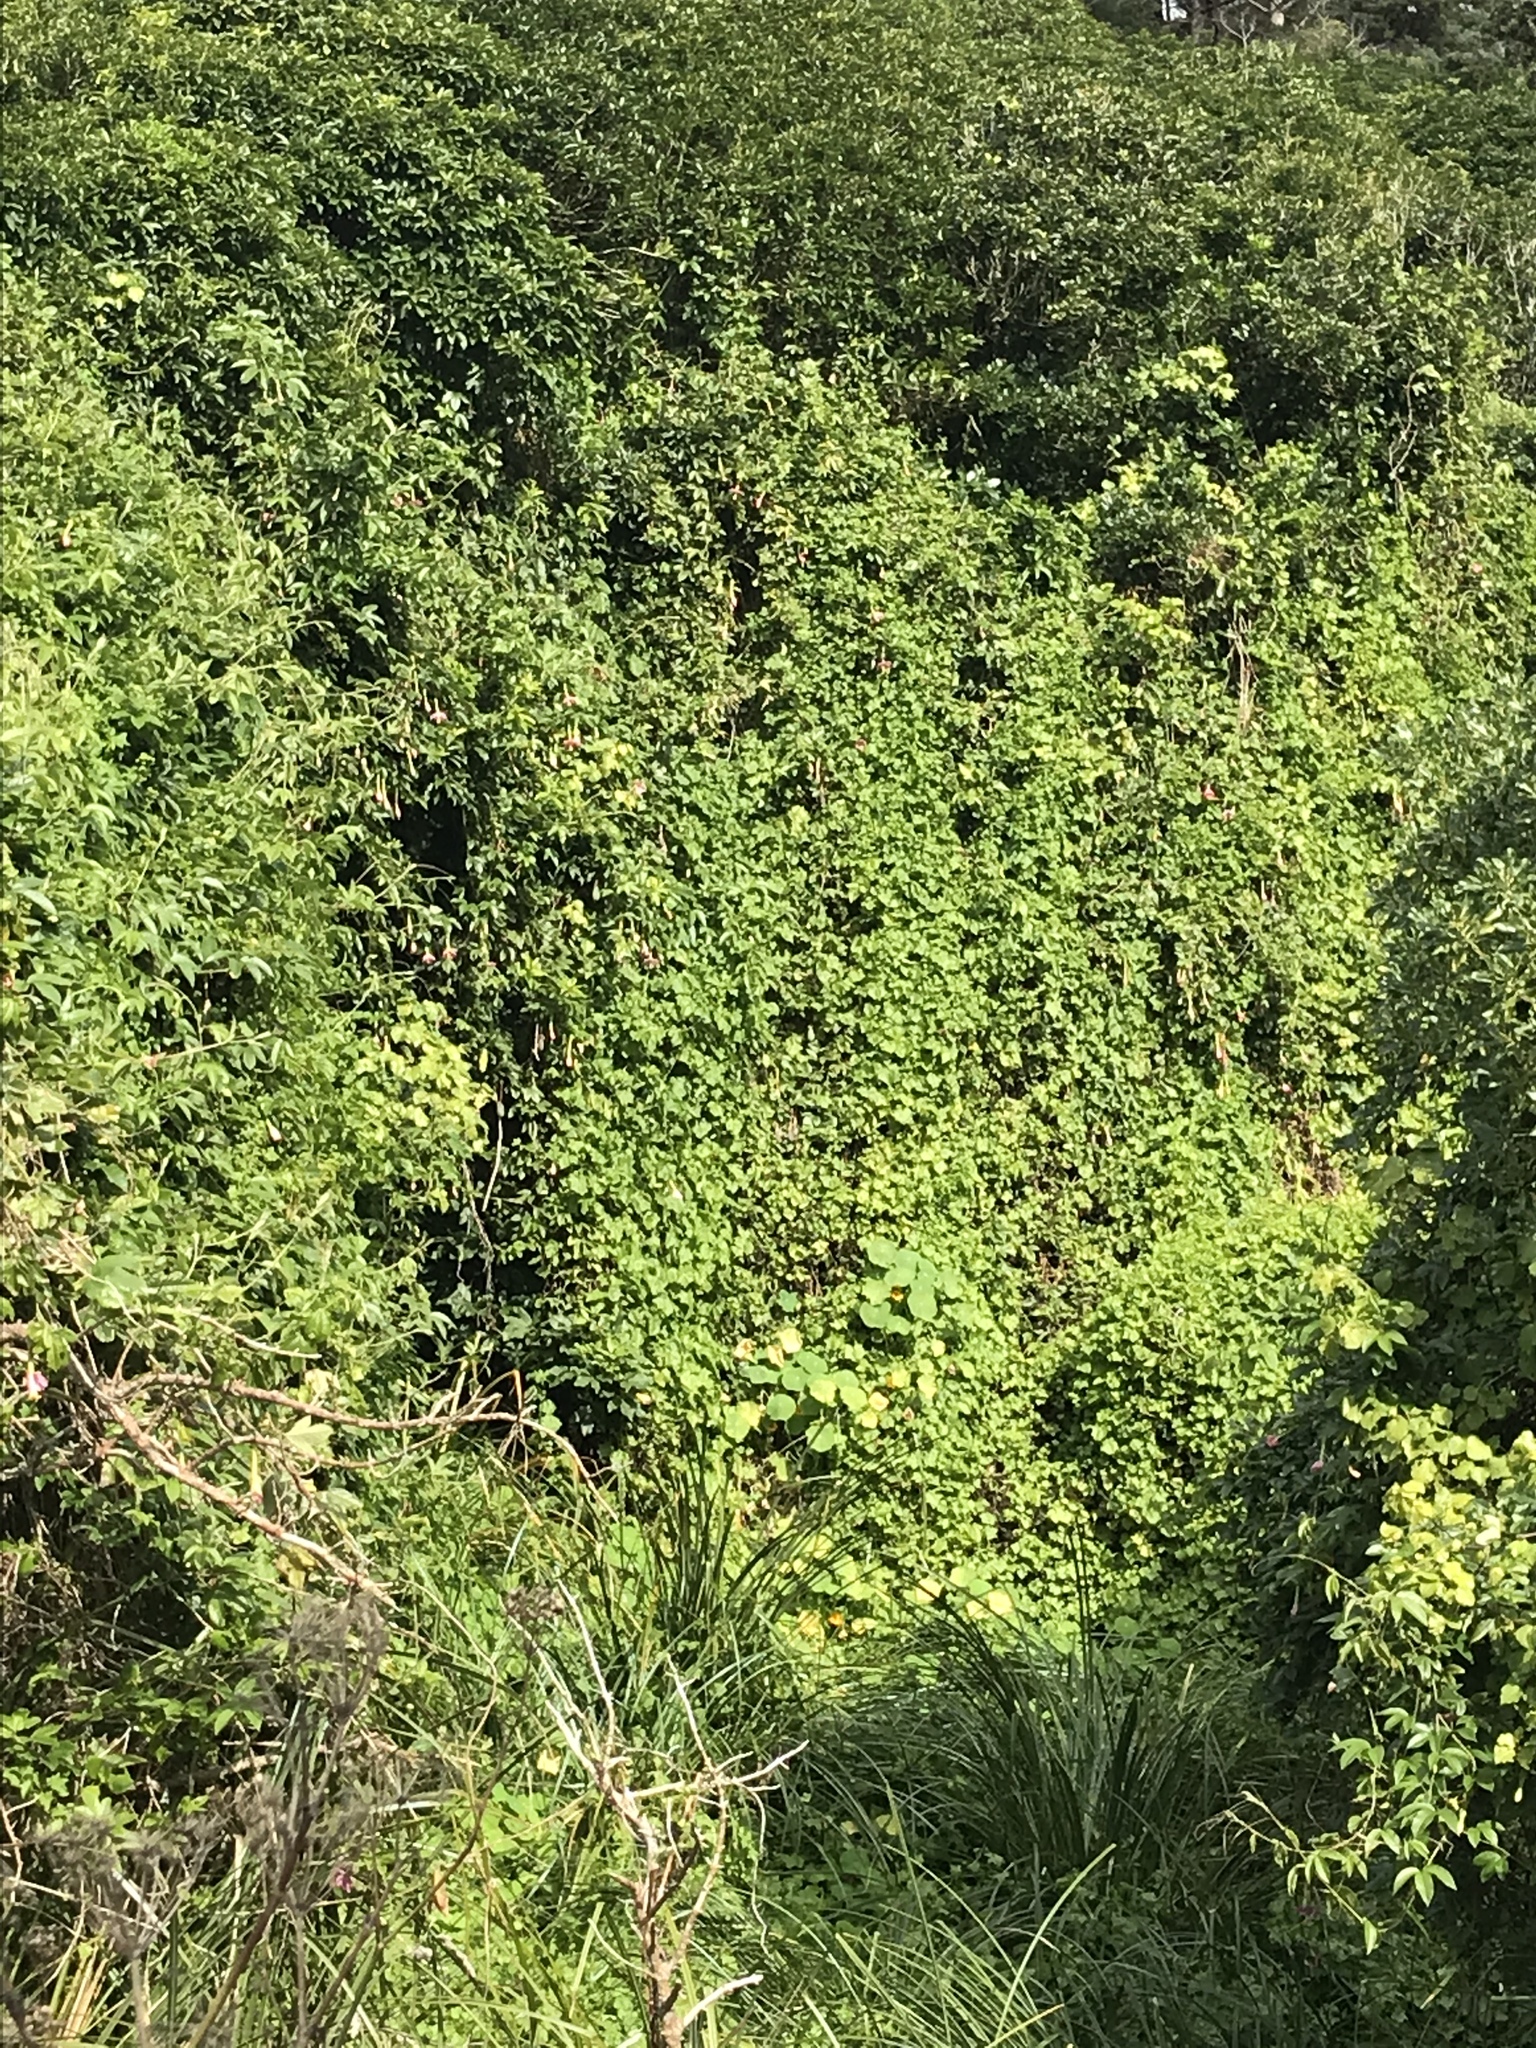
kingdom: Plantae
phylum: Tracheophyta
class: Magnoliopsida
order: Malpighiales
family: Passifloraceae
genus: Passiflora
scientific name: Passiflora tripartita
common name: Banana poka
